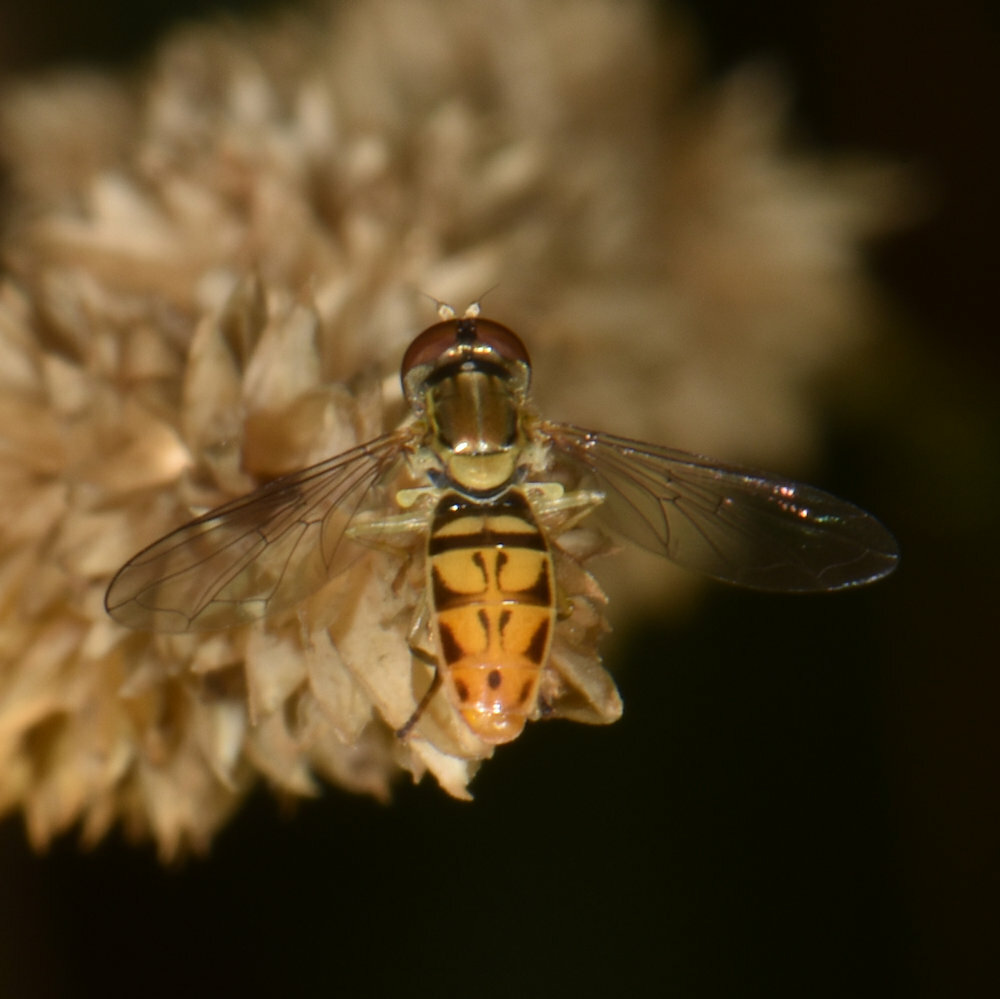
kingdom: Animalia
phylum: Arthropoda
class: Insecta
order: Diptera
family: Syrphidae
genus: Toxomerus
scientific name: Toxomerus marginatus
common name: Syrphid fly
